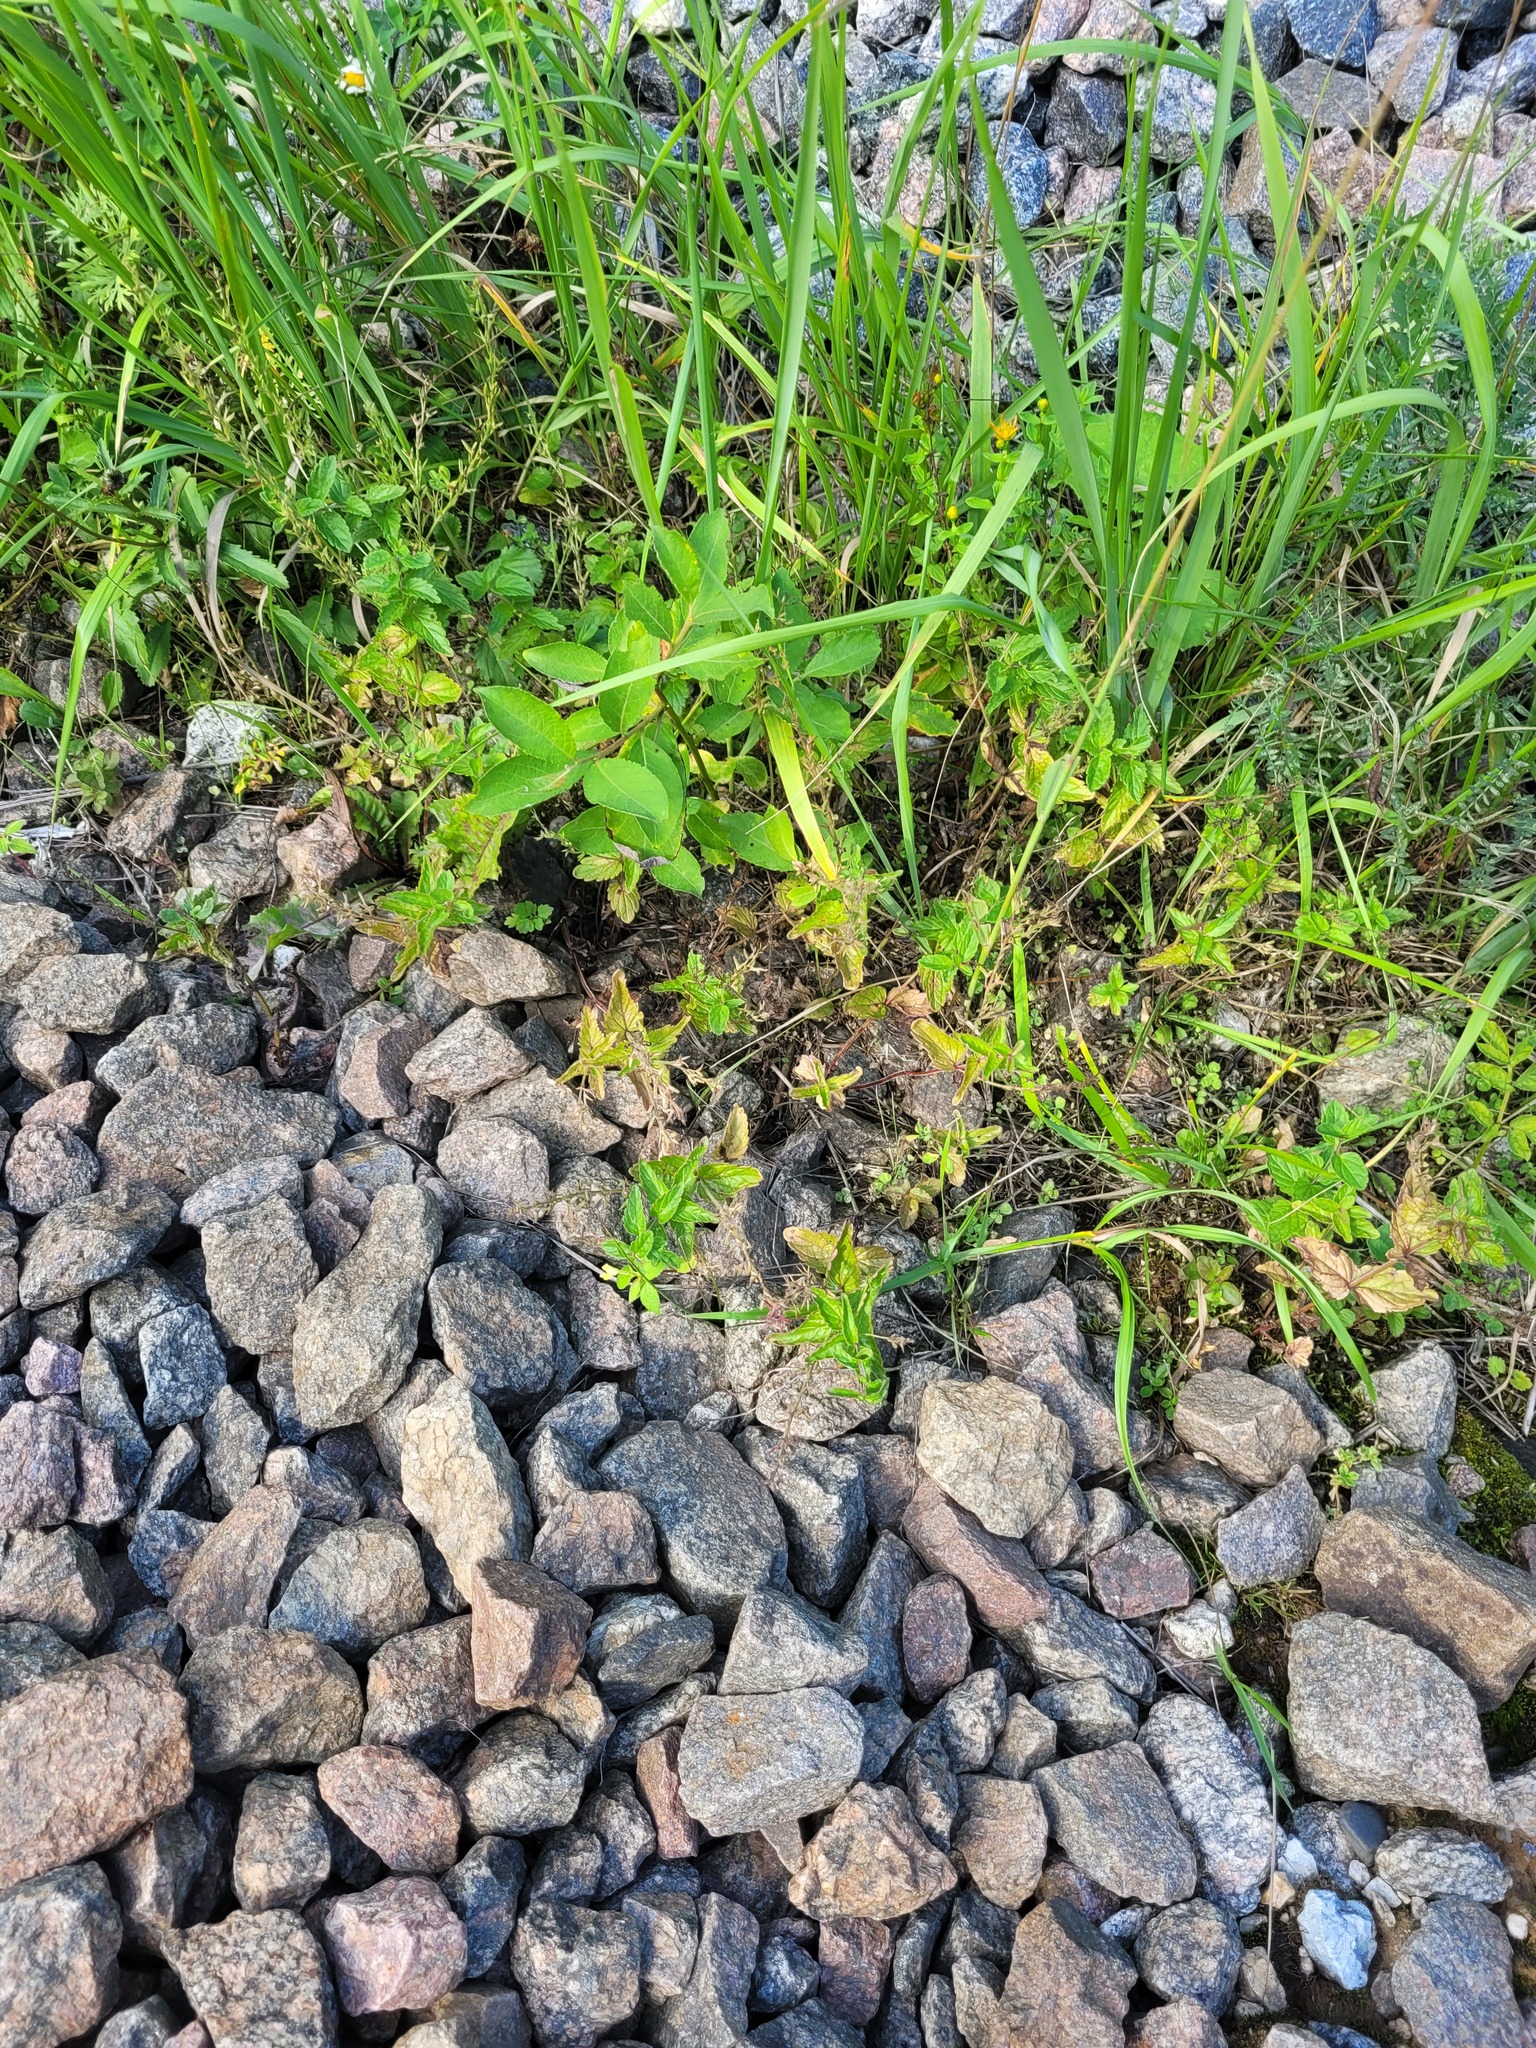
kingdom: Plantae
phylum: Tracheophyta
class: Magnoliopsida
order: Lamiales
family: Plantaginaceae
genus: Veronica
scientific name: Veronica chamaedrys
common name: Germander speedwell
